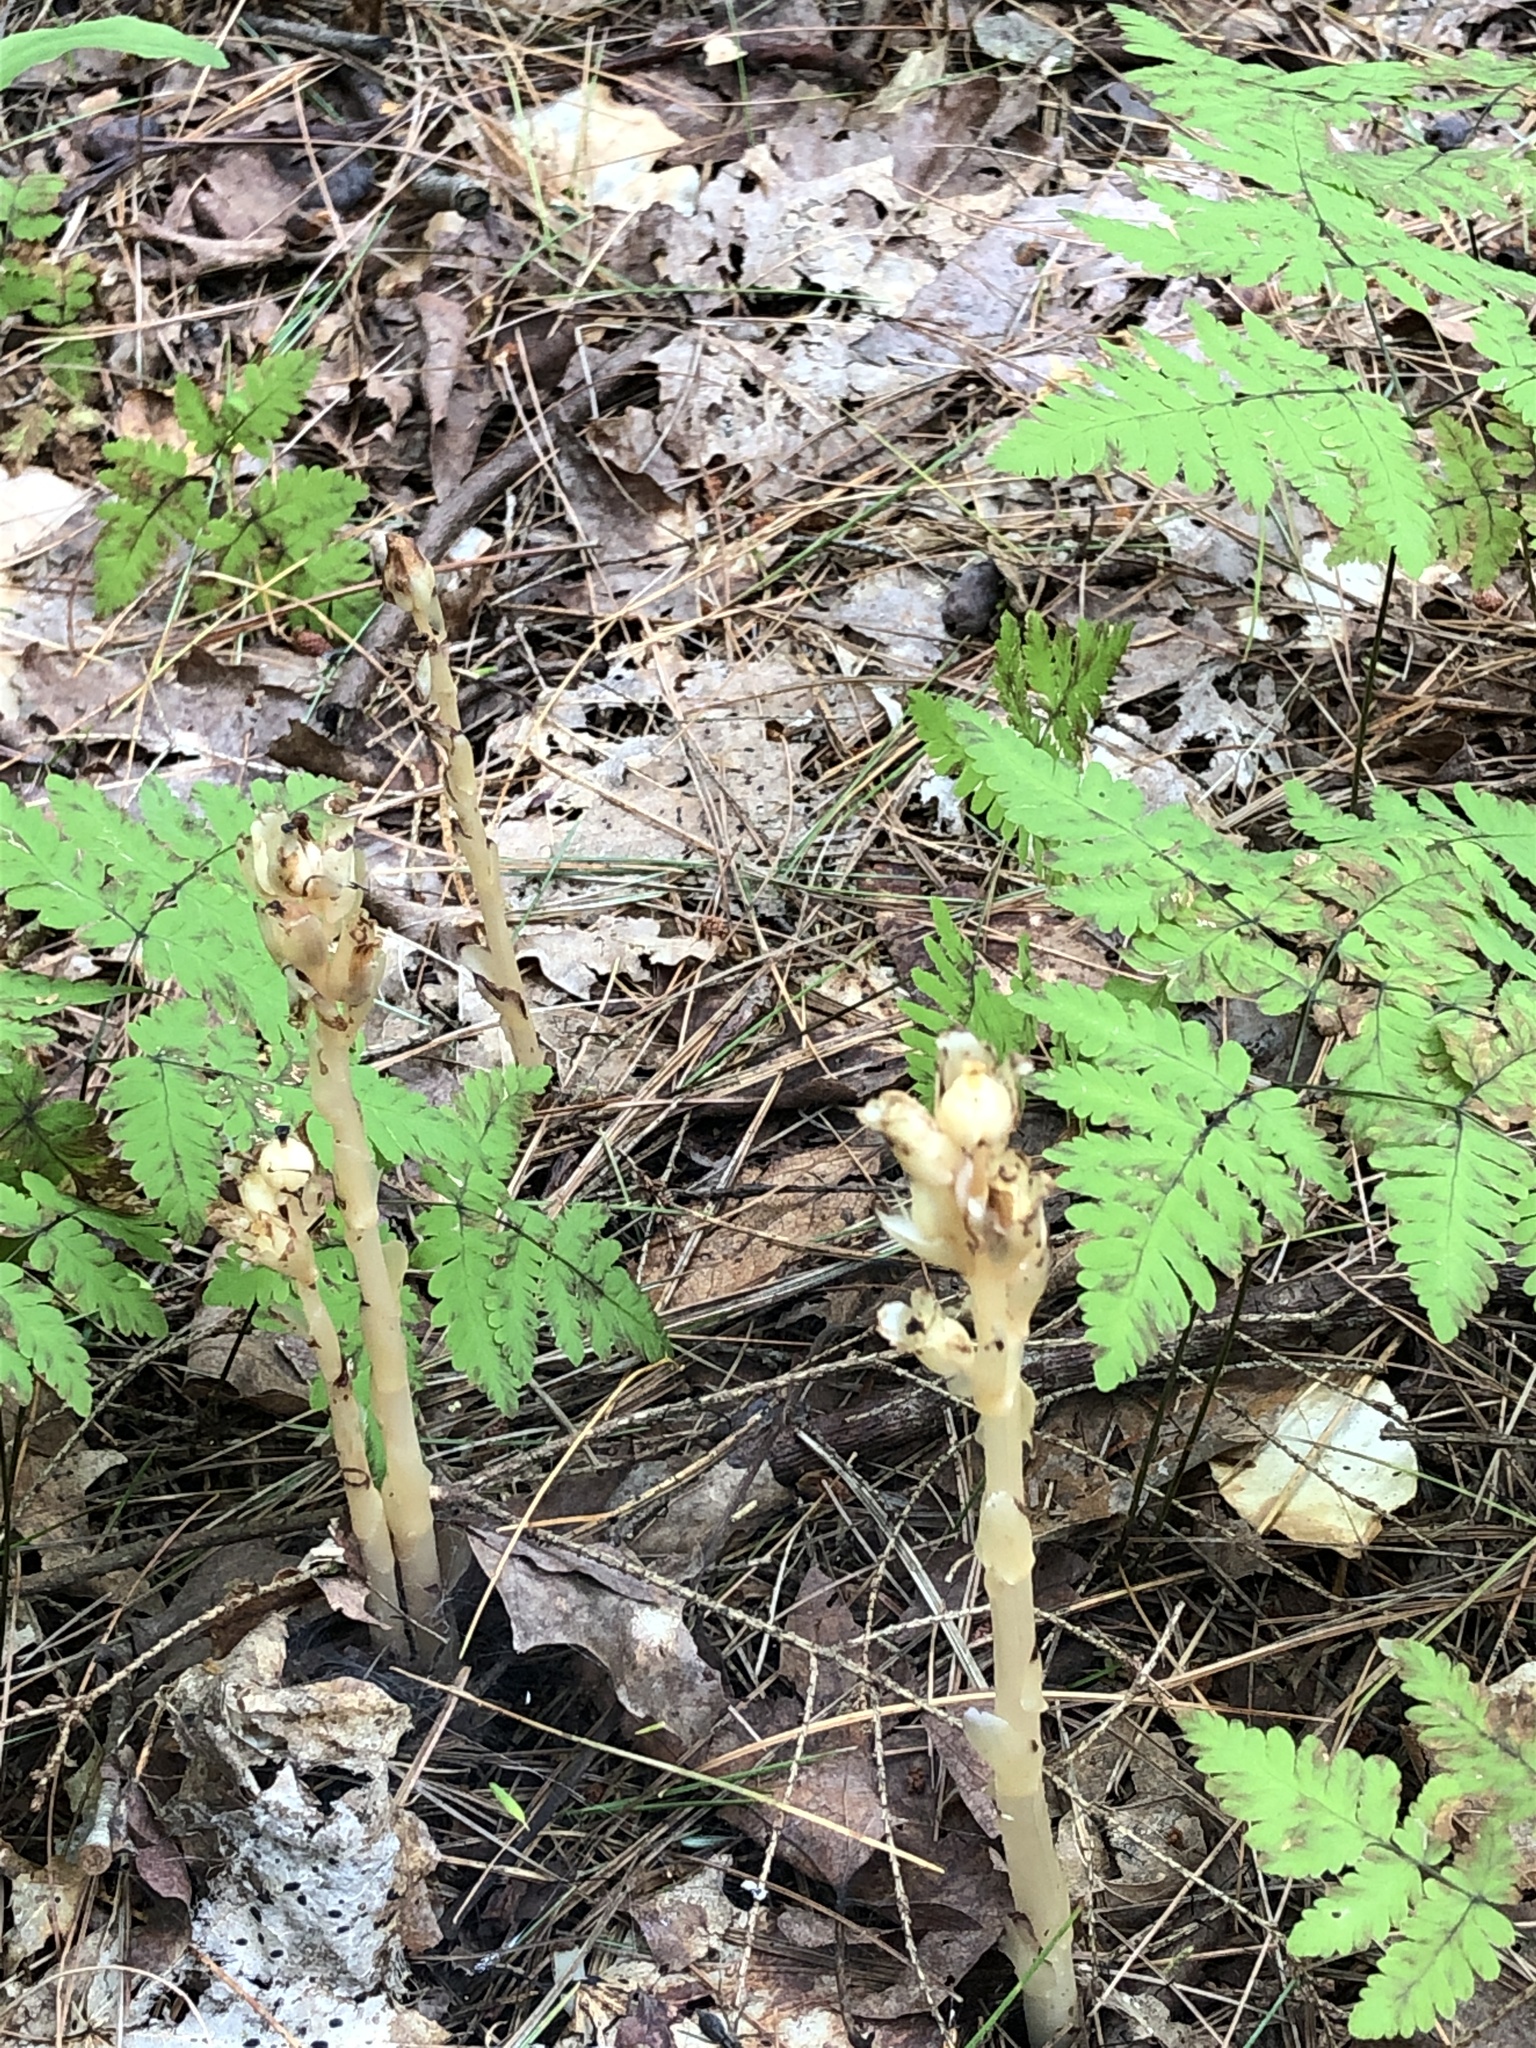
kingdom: Plantae
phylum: Tracheophyta
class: Magnoliopsida
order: Ericales
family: Ericaceae
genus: Hypopitys
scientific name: Hypopitys monotropa
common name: Yellow bird's-nest
